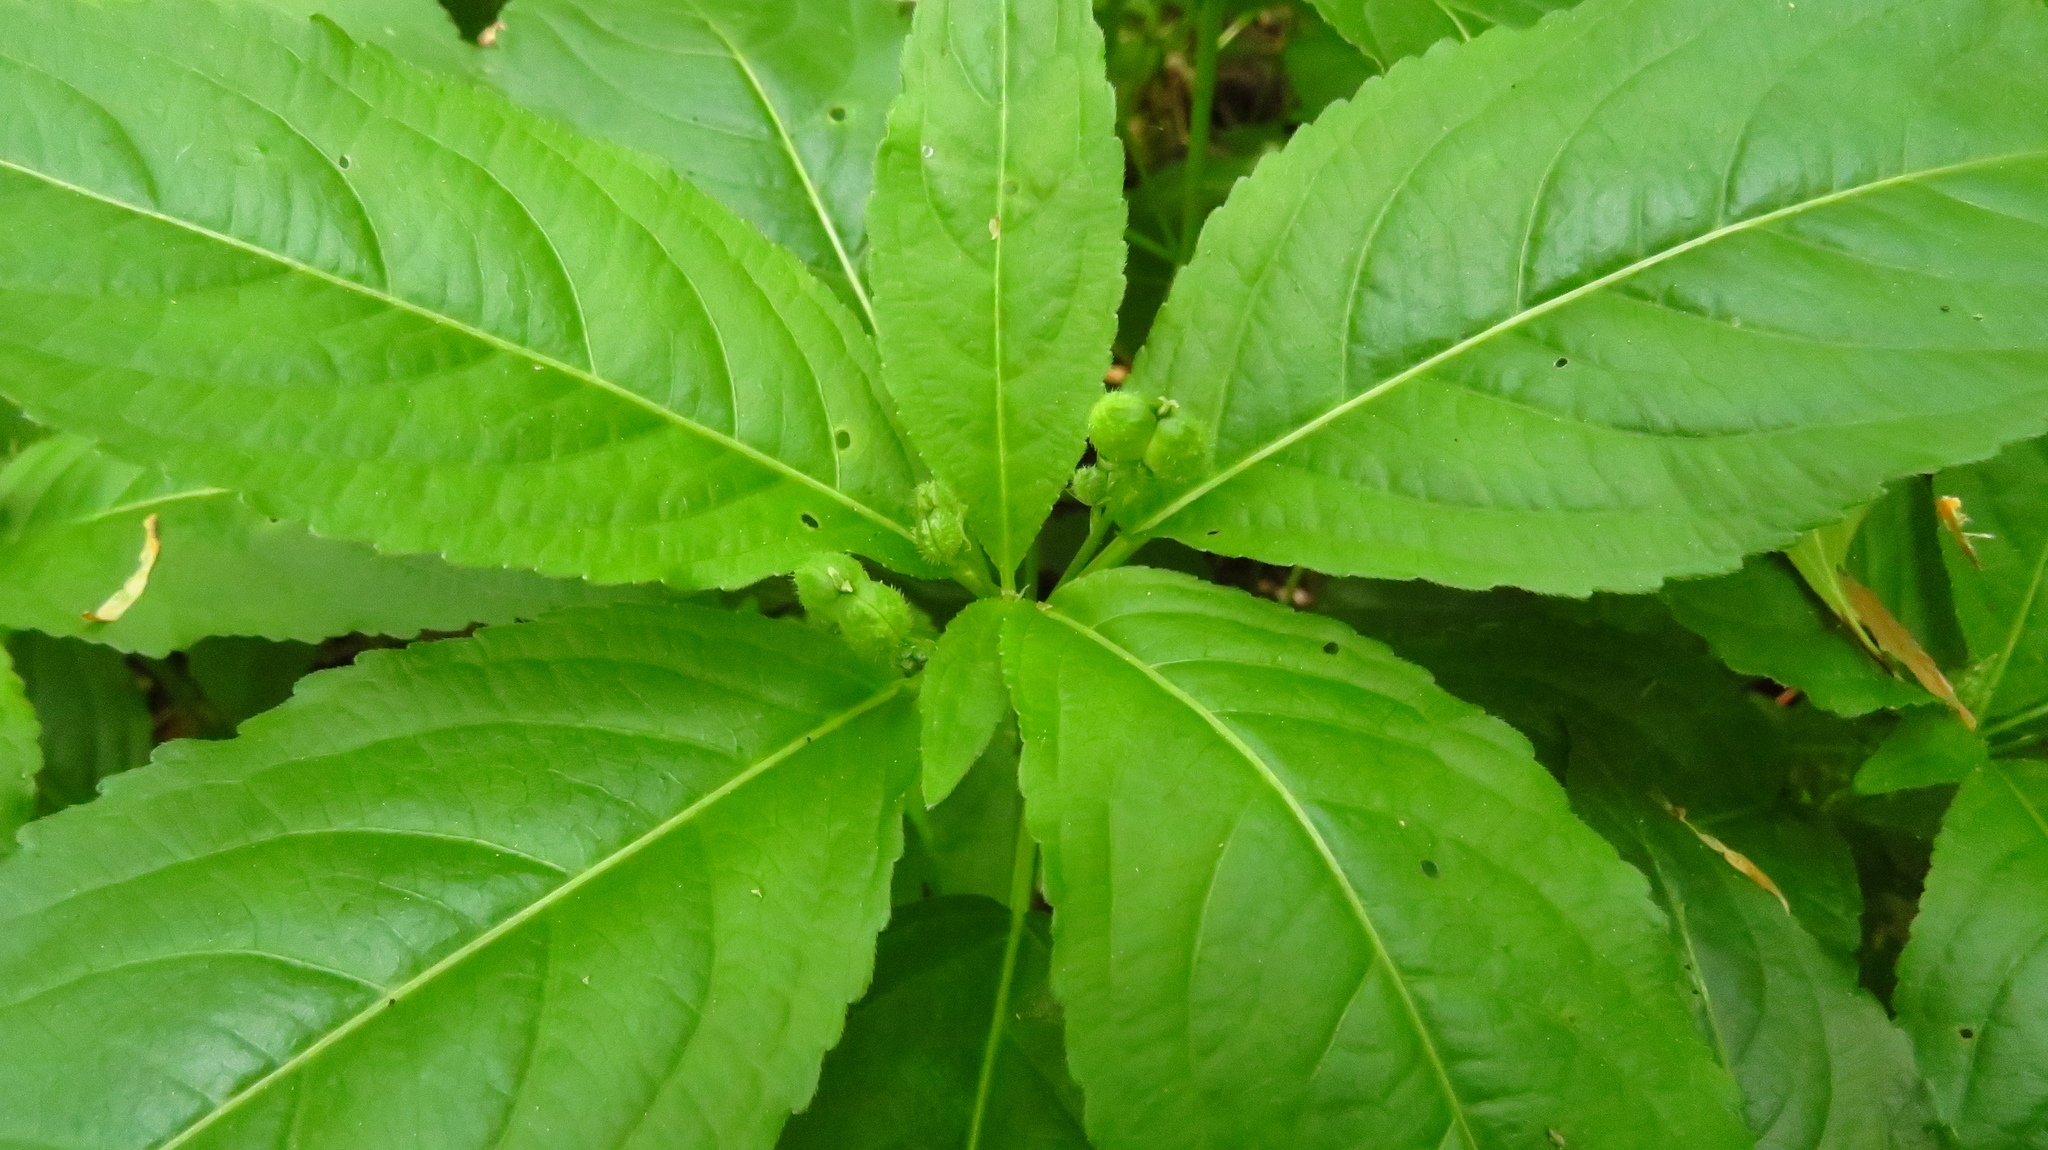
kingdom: Plantae
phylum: Tracheophyta
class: Magnoliopsida
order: Malpighiales
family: Euphorbiaceae
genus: Mercurialis
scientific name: Mercurialis perennis
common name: Dog mercury
